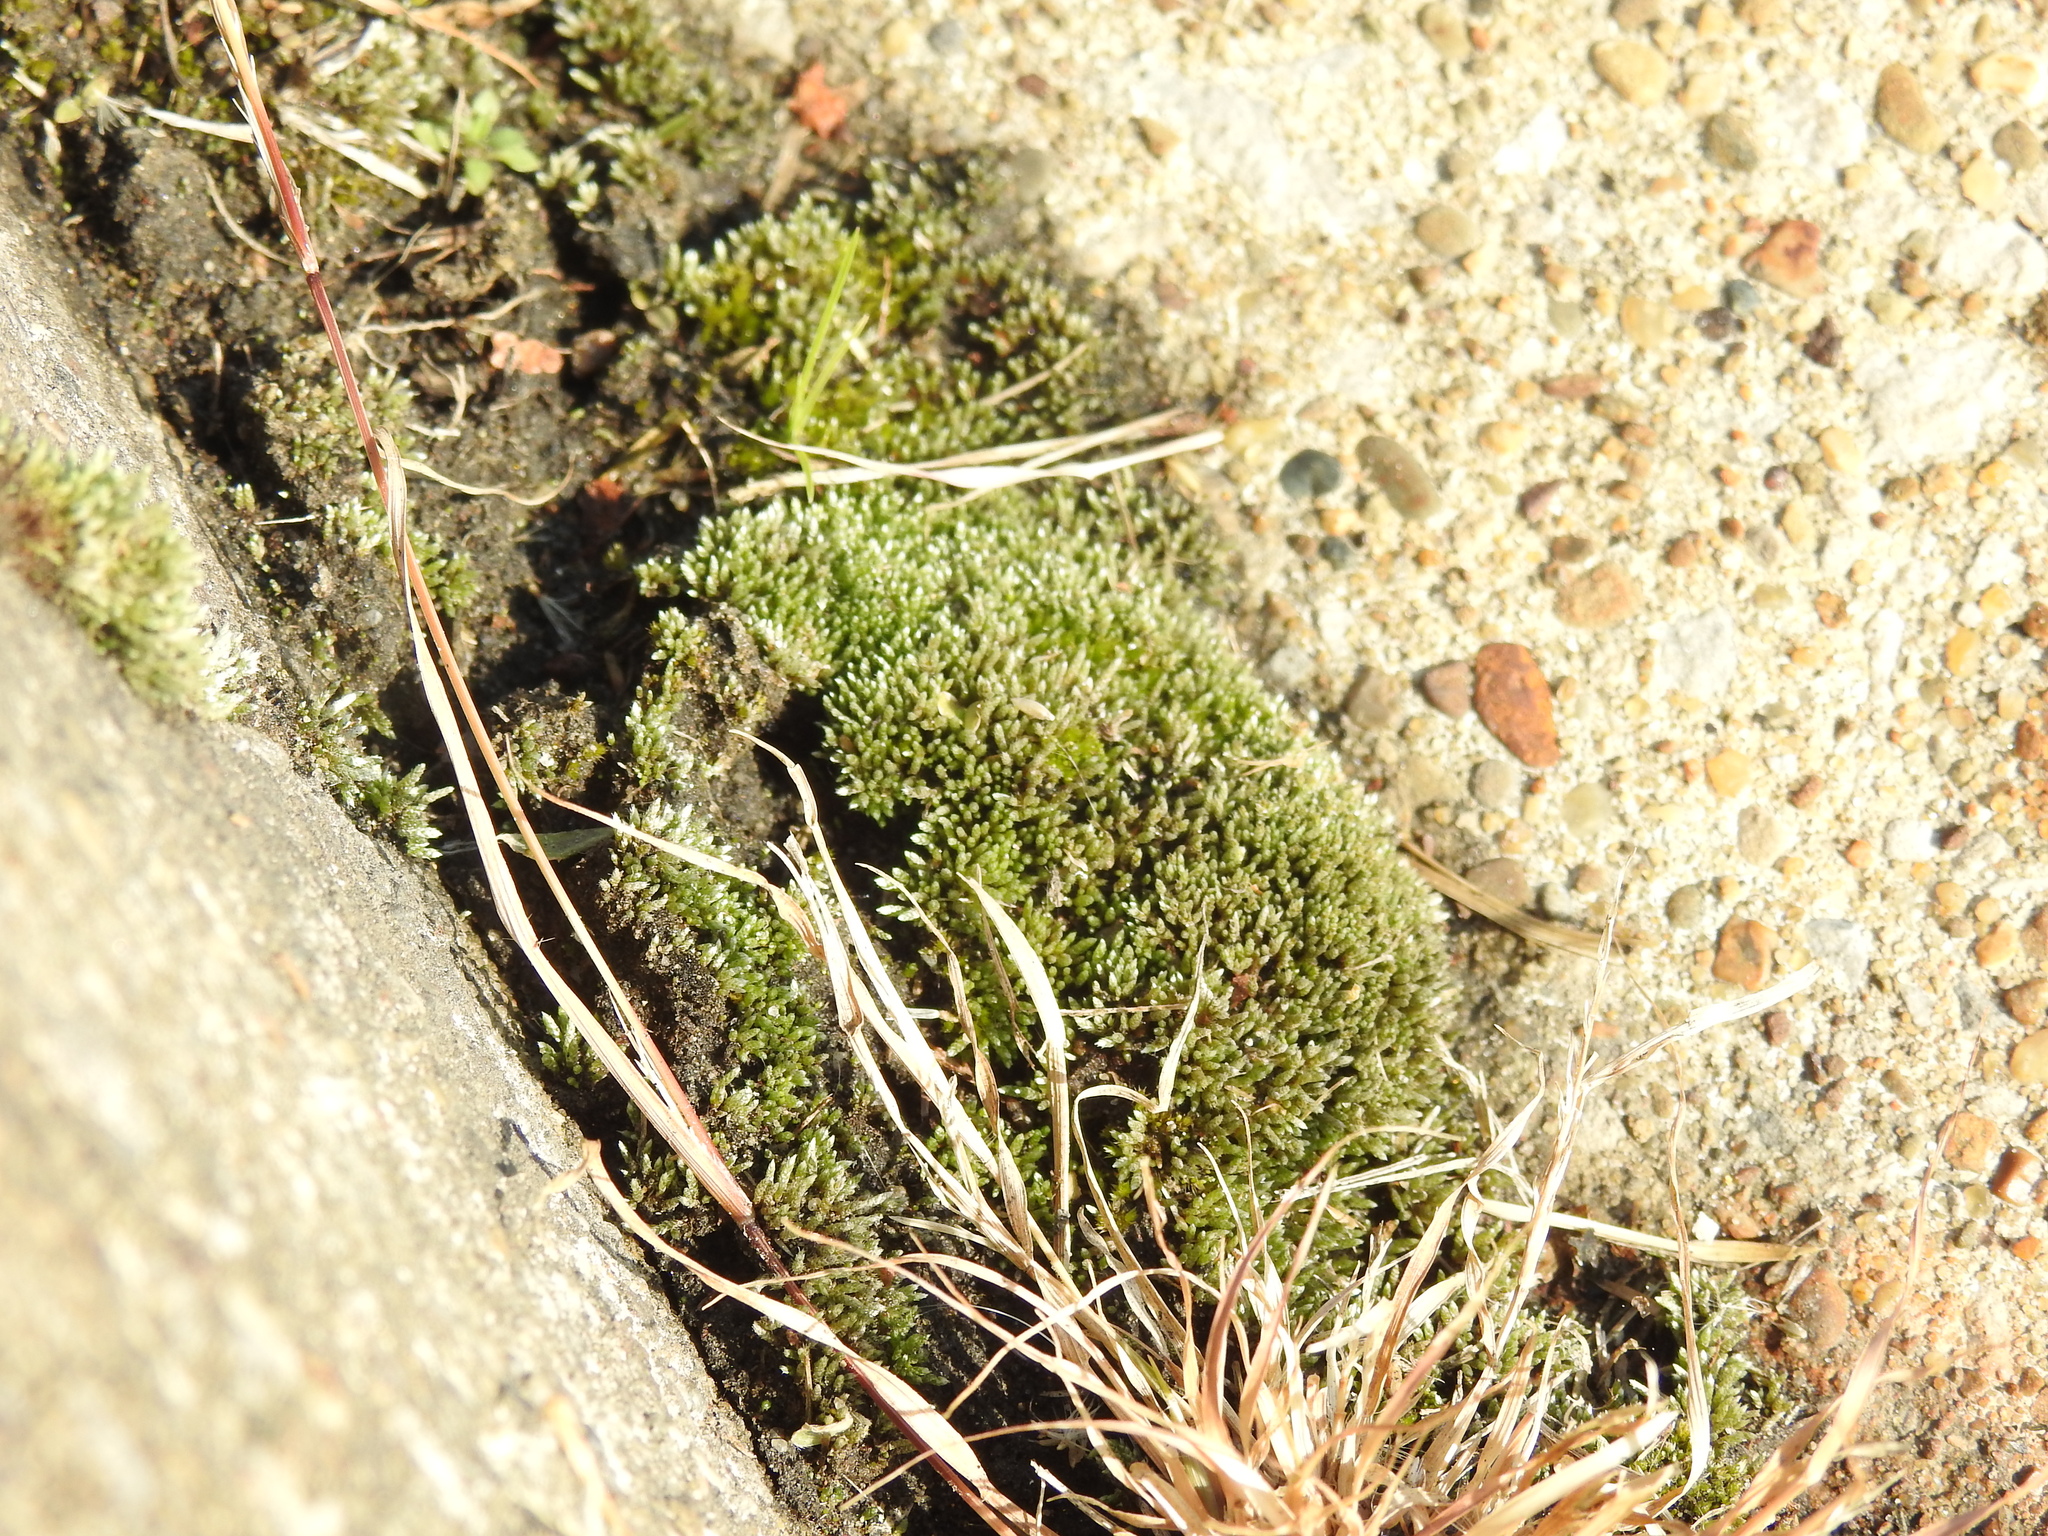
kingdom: Plantae
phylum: Bryophyta
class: Bryopsida
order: Bryales
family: Bryaceae
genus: Bryum
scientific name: Bryum argenteum
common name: Silver-moss
